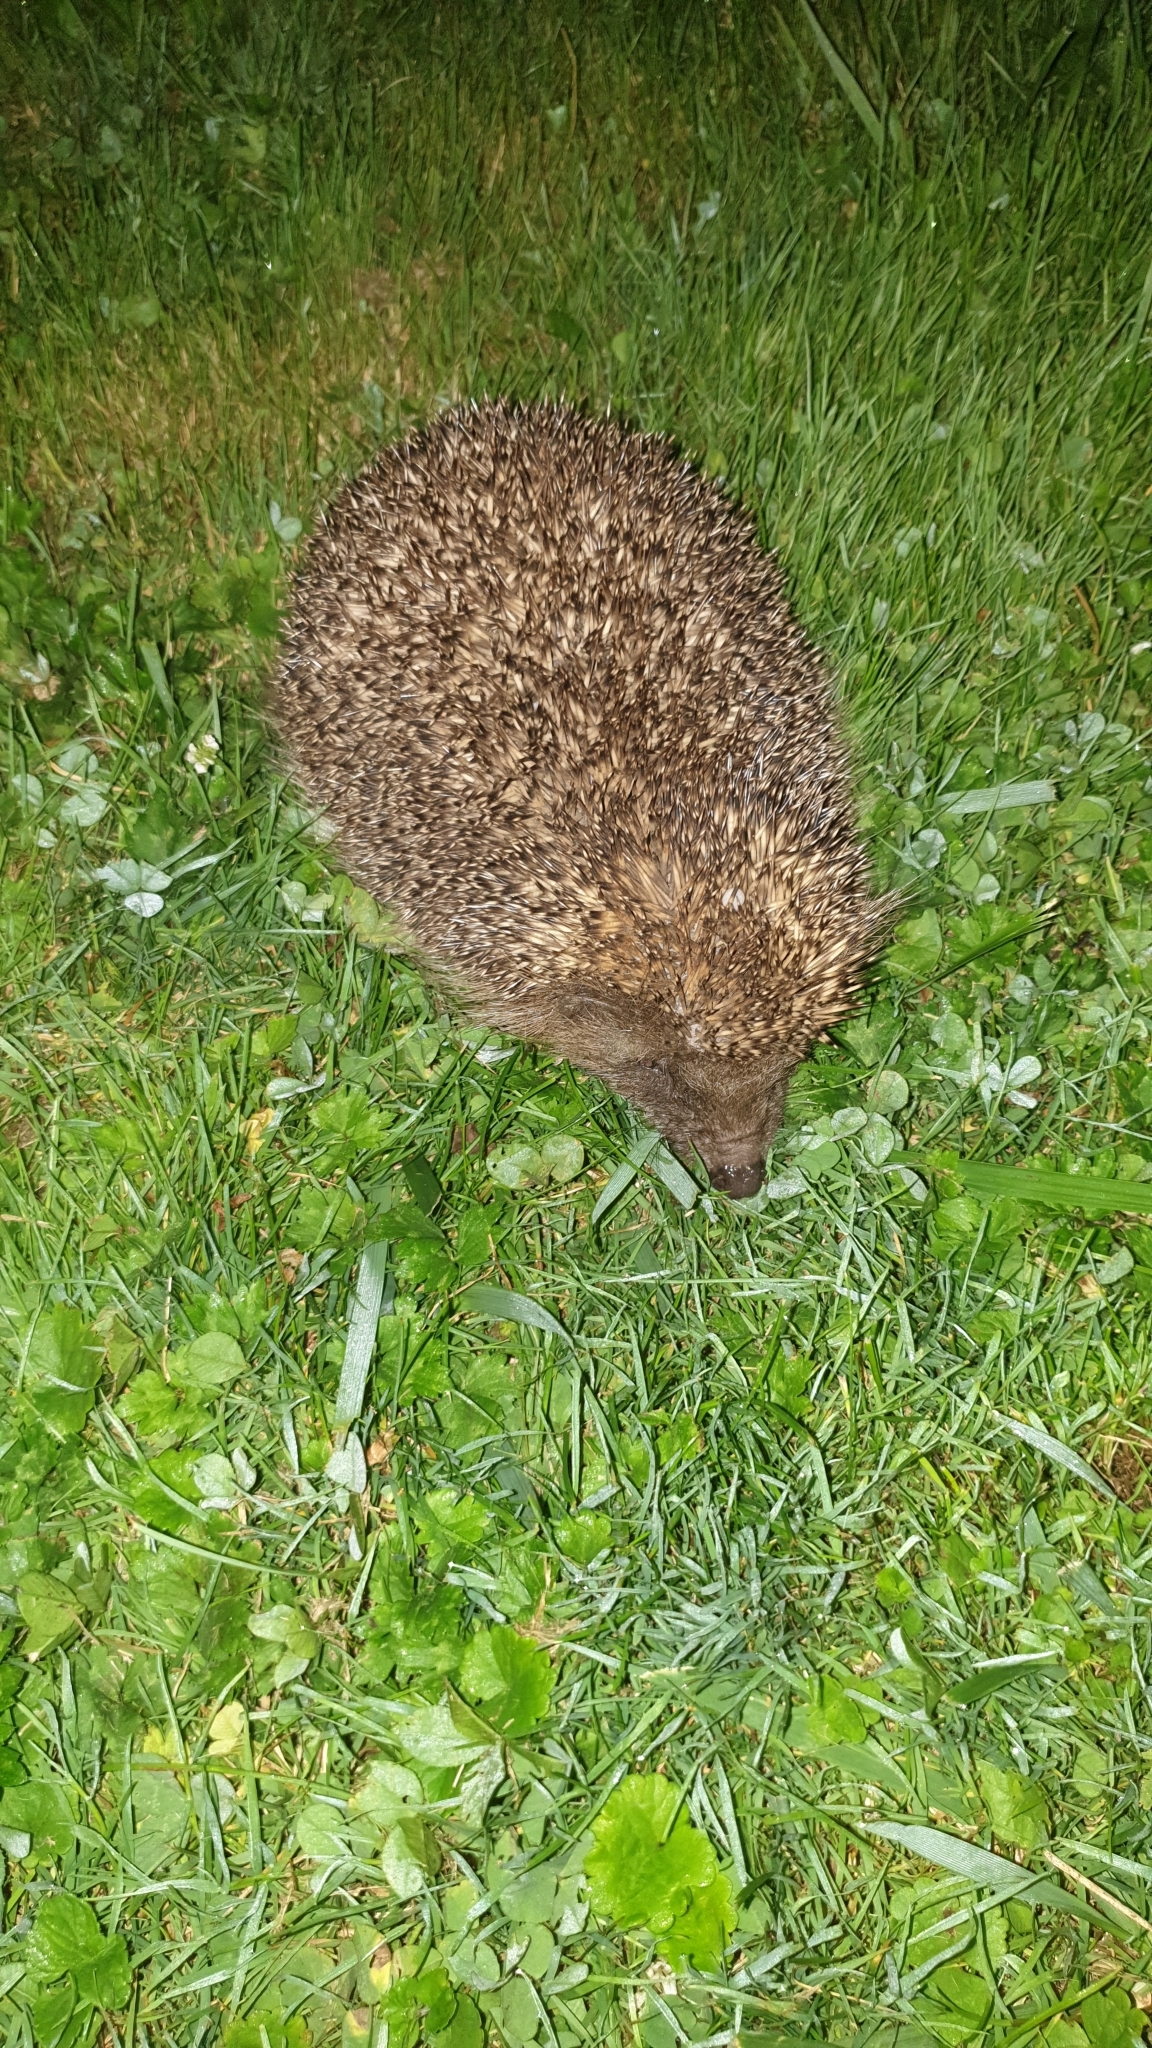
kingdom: Animalia
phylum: Chordata
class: Mammalia
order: Erinaceomorpha
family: Erinaceidae
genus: Erinaceus
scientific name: Erinaceus europaeus
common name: West european hedgehog
